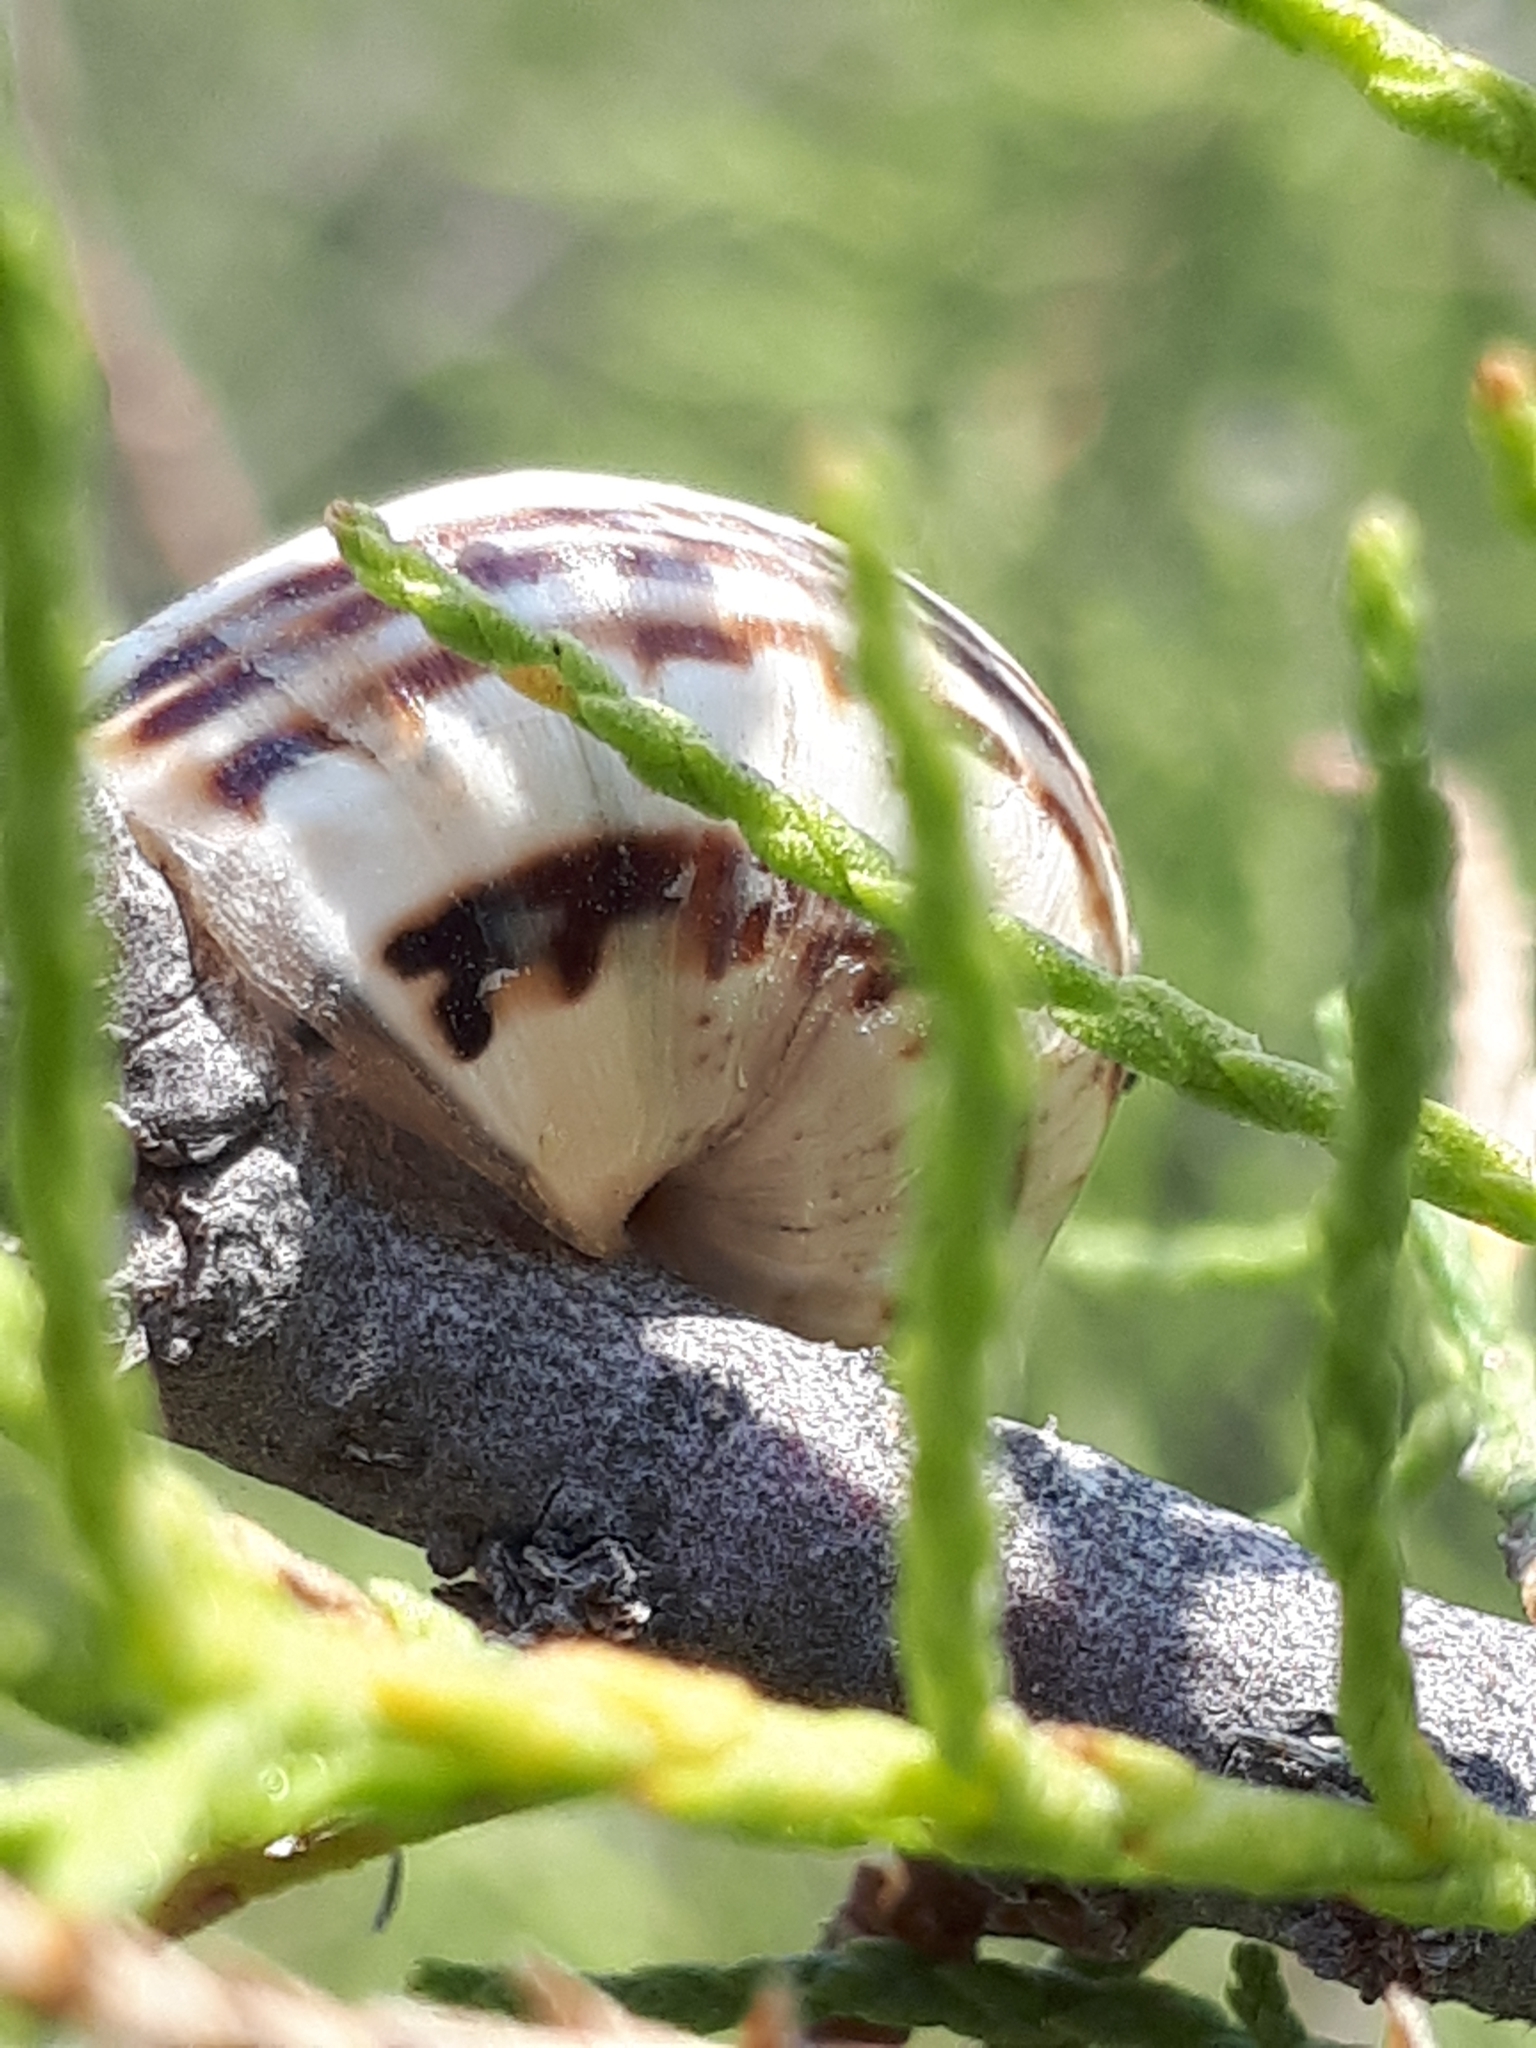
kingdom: Animalia
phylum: Mollusca
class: Gastropoda
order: Stylommatophora
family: Helicidae
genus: Theba
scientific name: Theba pisana
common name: White snail
